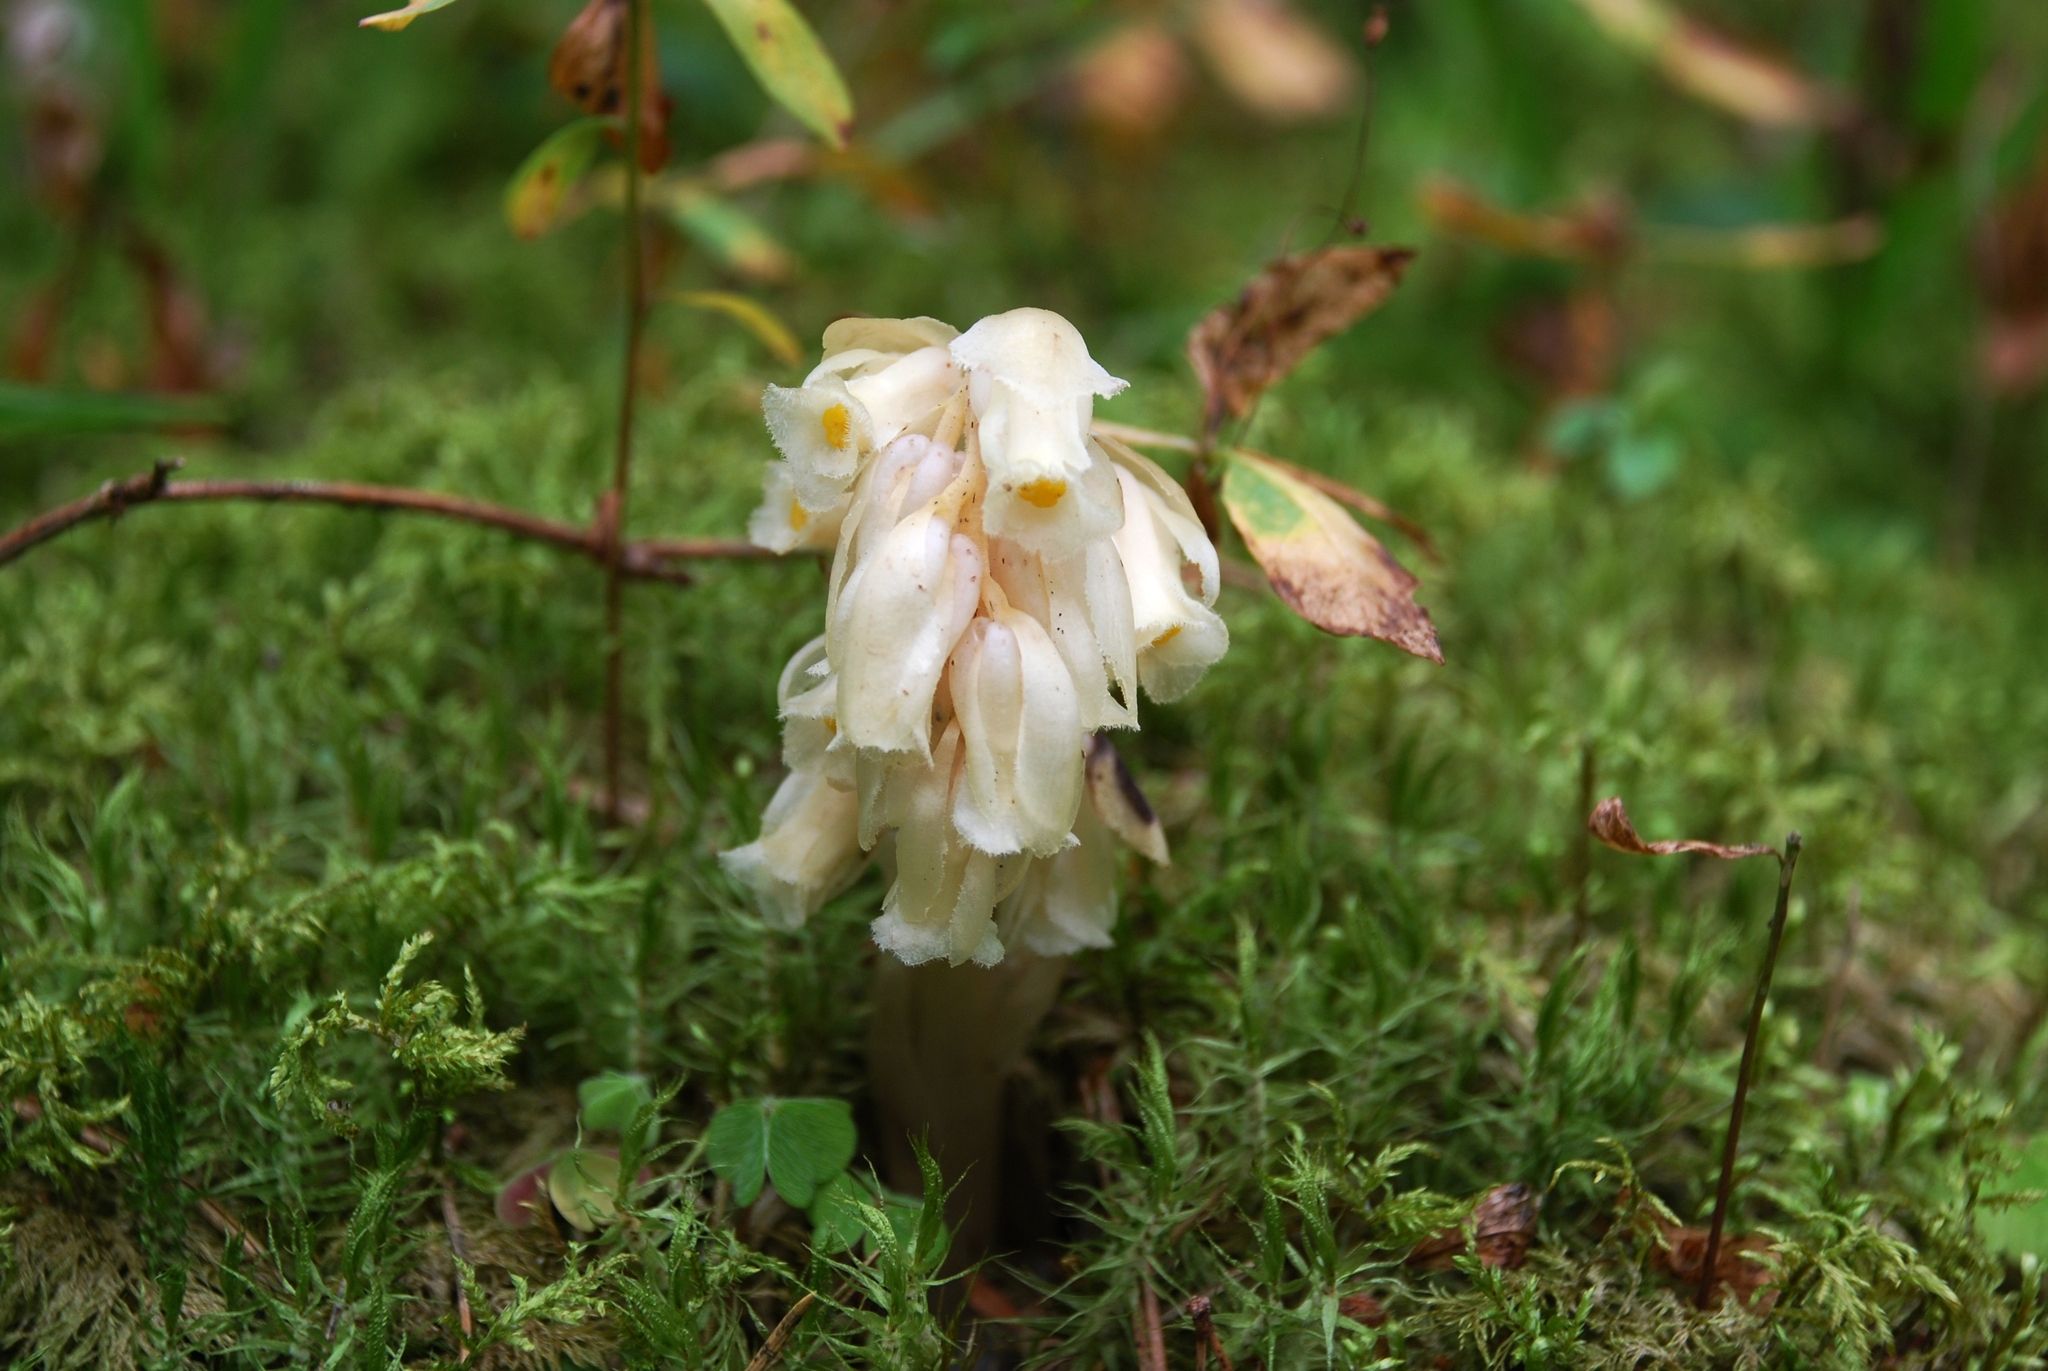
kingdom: Plantae
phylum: Tracheophyta
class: Magnoliopsida
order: Ericales
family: Ericaceae
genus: Hypopitys
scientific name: Hypopitys monotropa
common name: Yellow bird's-nest
